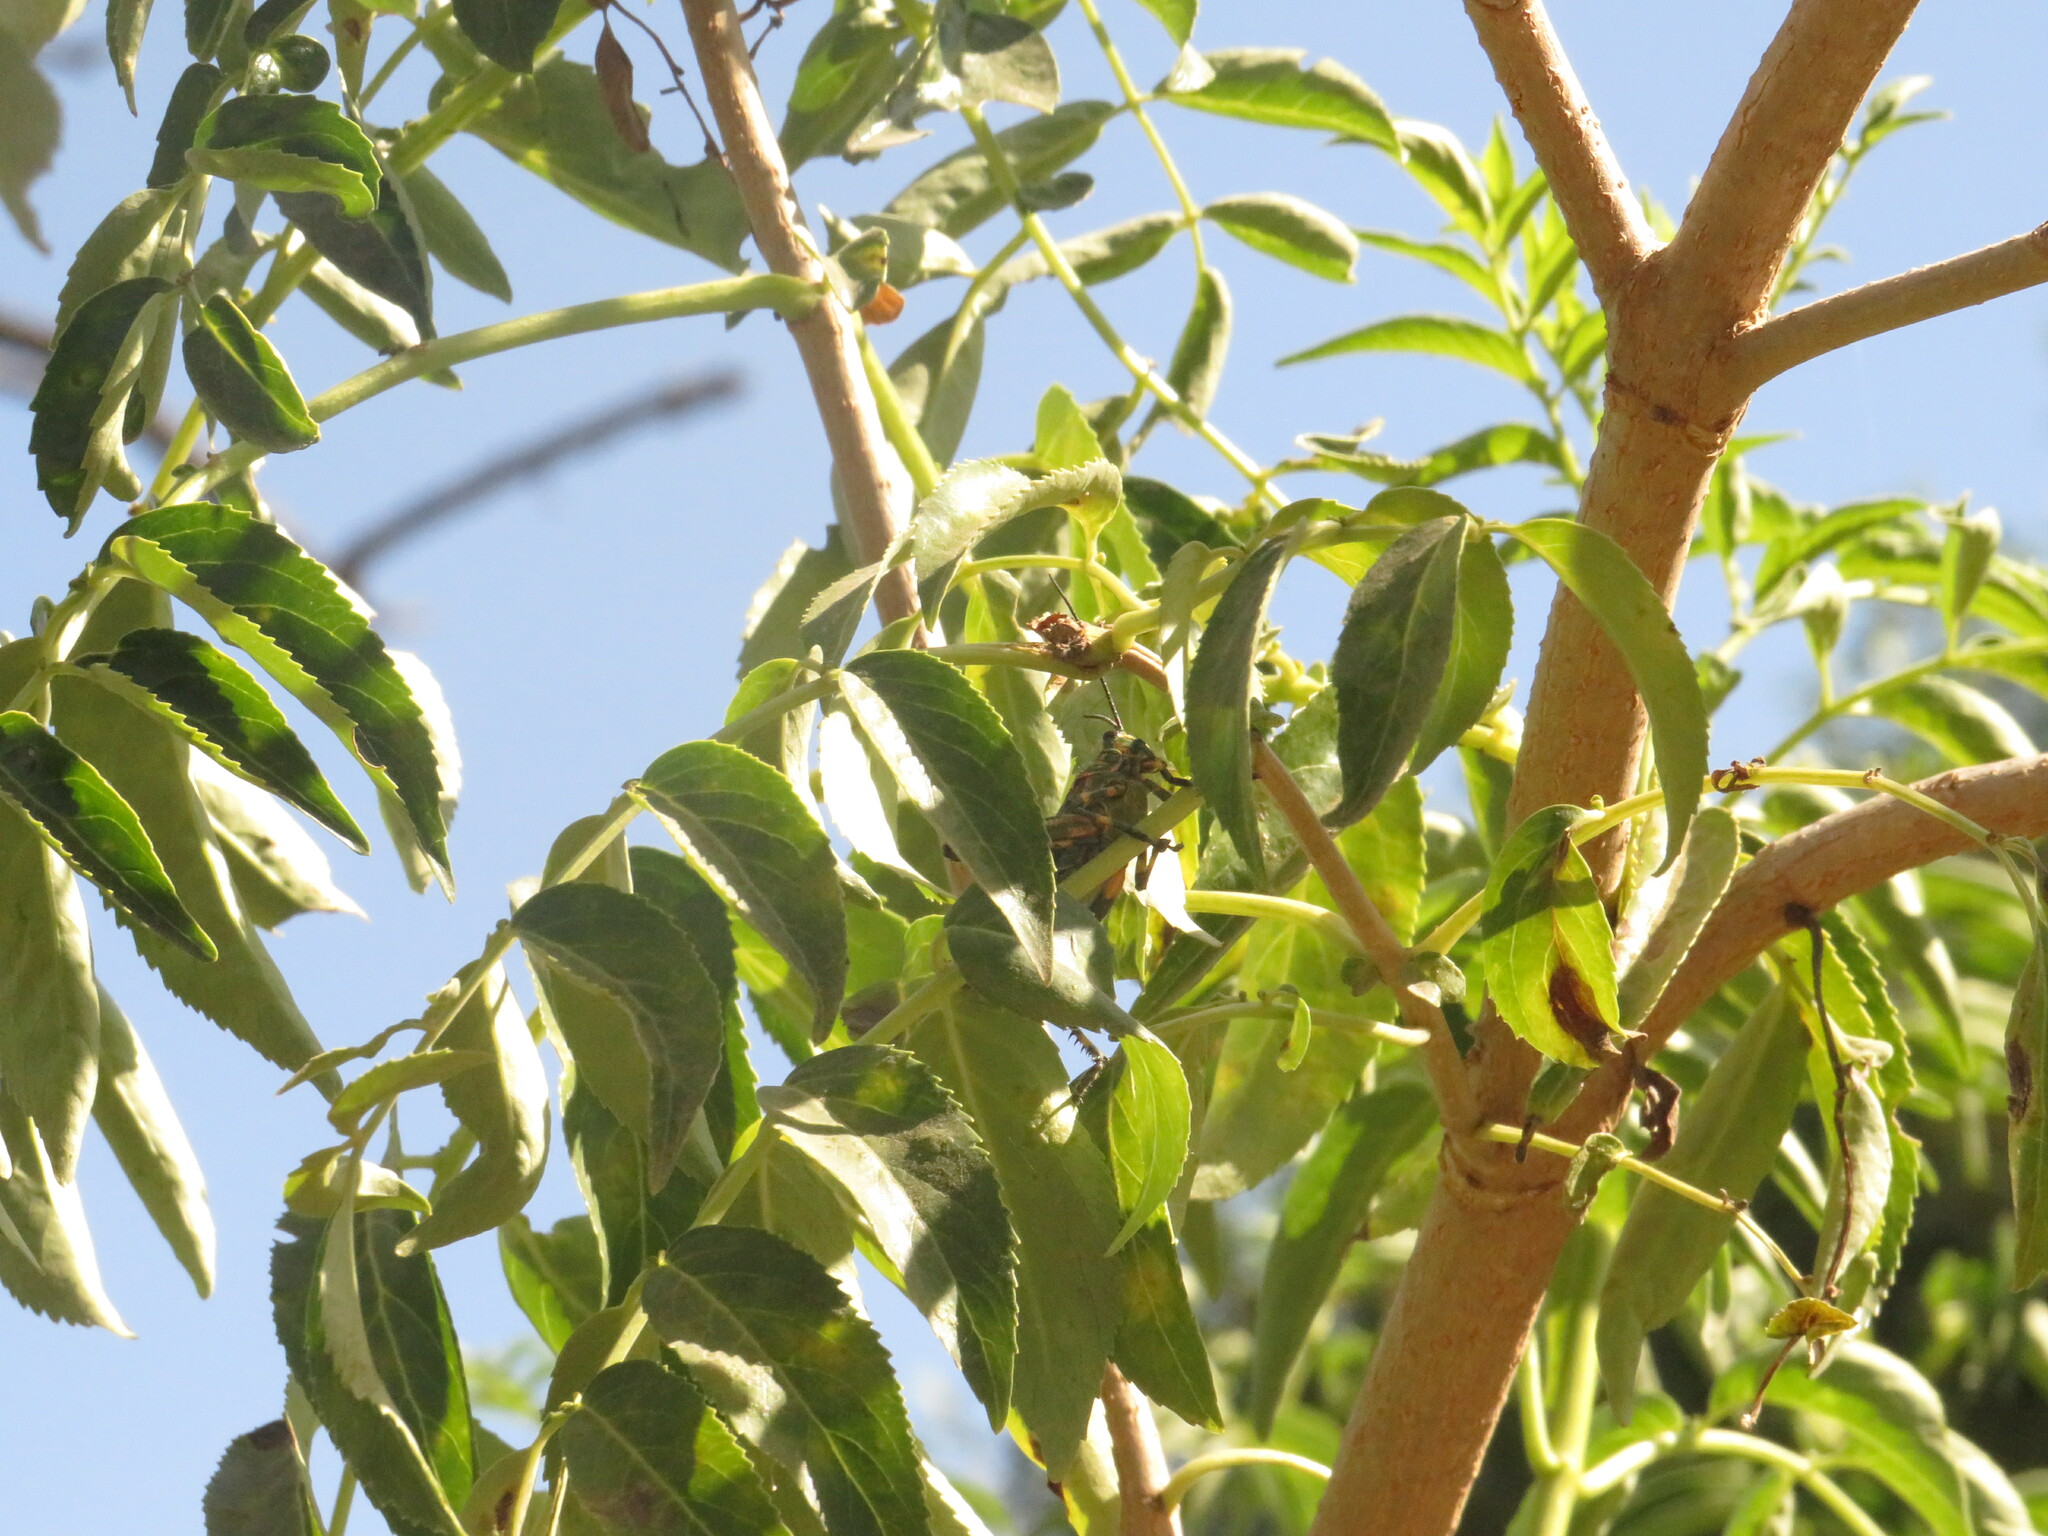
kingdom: Animalia
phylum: Arthropoda
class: Insecta
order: Orthoptera
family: Romaleidae
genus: Chromacris
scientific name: Chromacris speciosa
